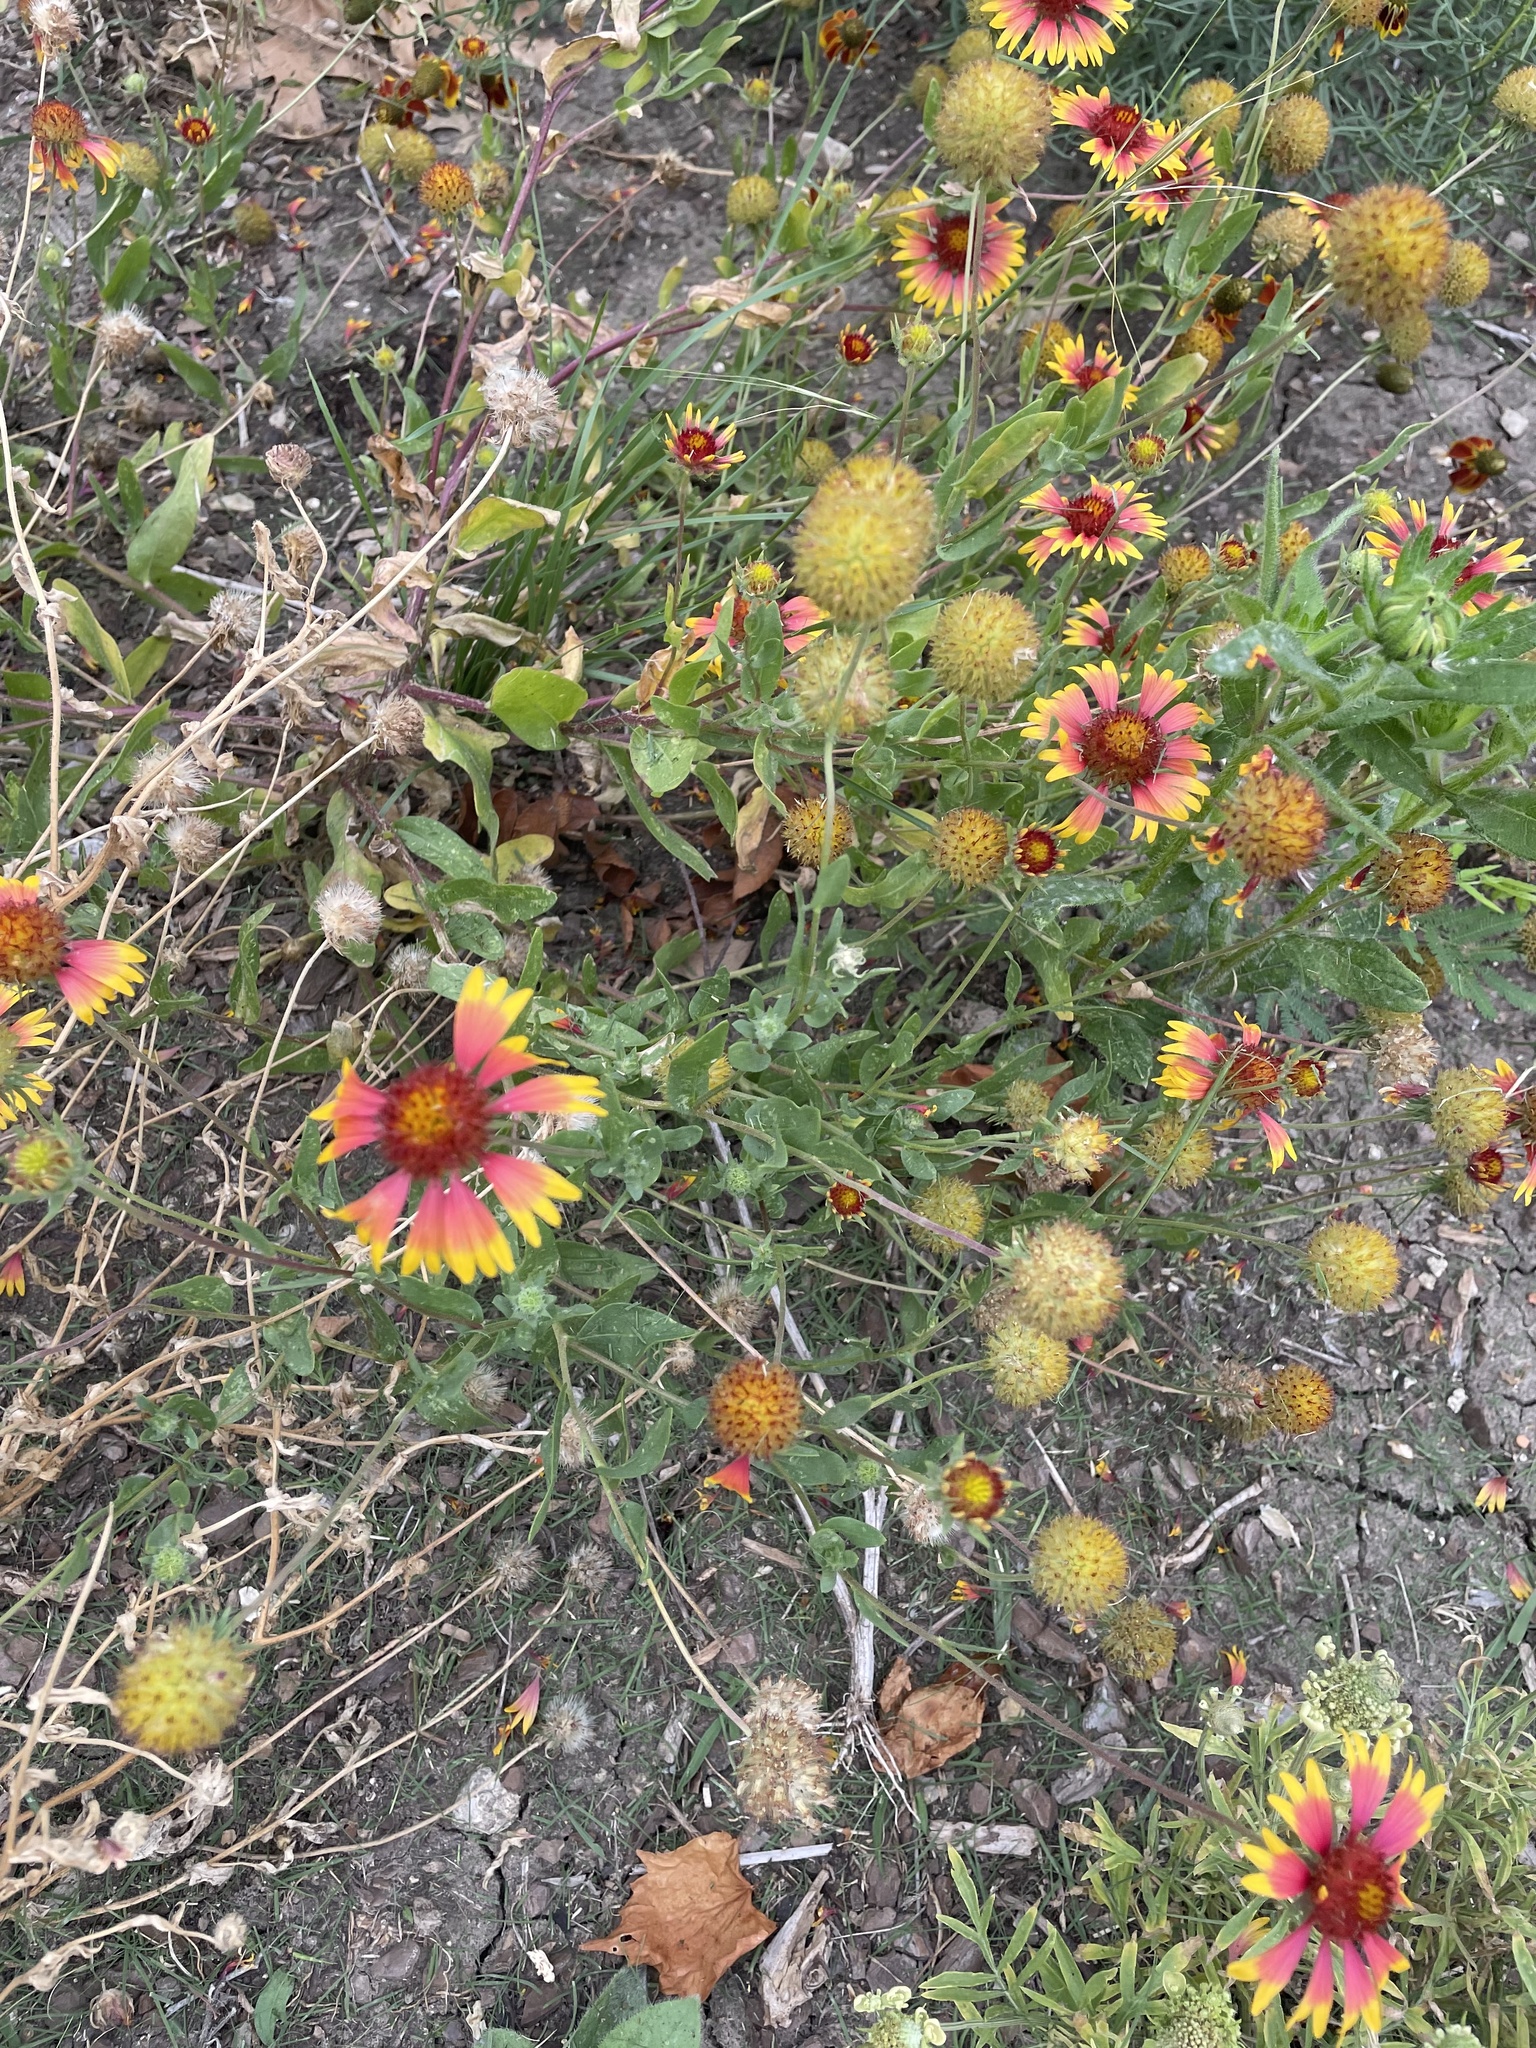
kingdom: Plantae
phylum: Tracheophyta
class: Magnoliopsida
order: Asterales
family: Asteraceae
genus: Gaillardia
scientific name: Gaillardia pulchella
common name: Firewheel
